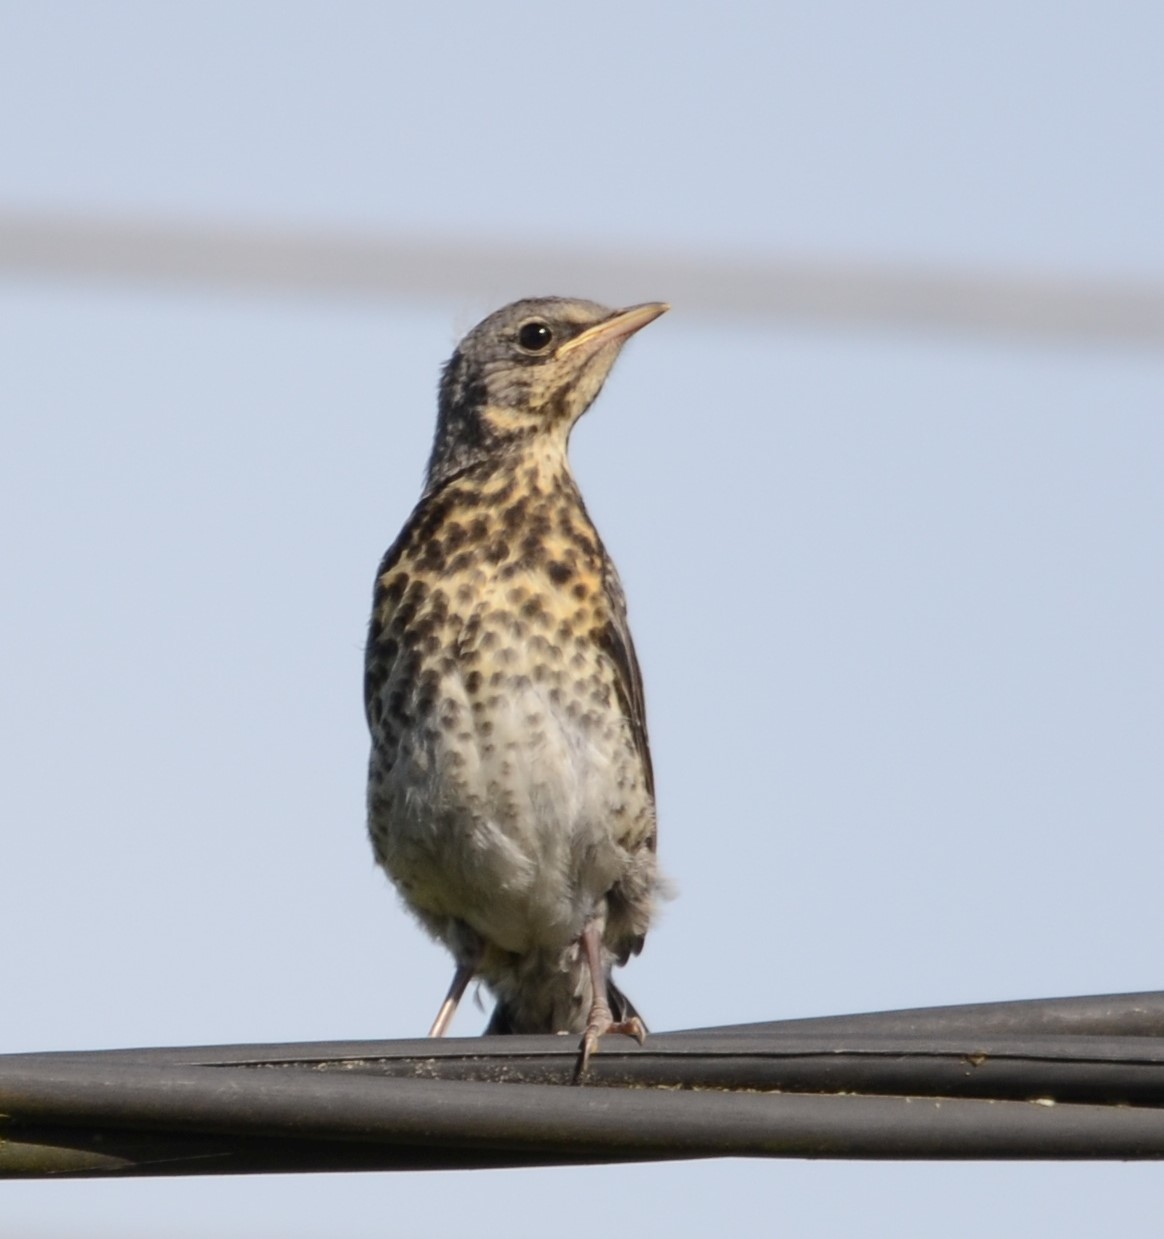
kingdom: Animalia
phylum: Chordata
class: Aves
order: Passeriformes
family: Turdidae
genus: Turdus
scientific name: Turdus pilaris
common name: Fieldfare
